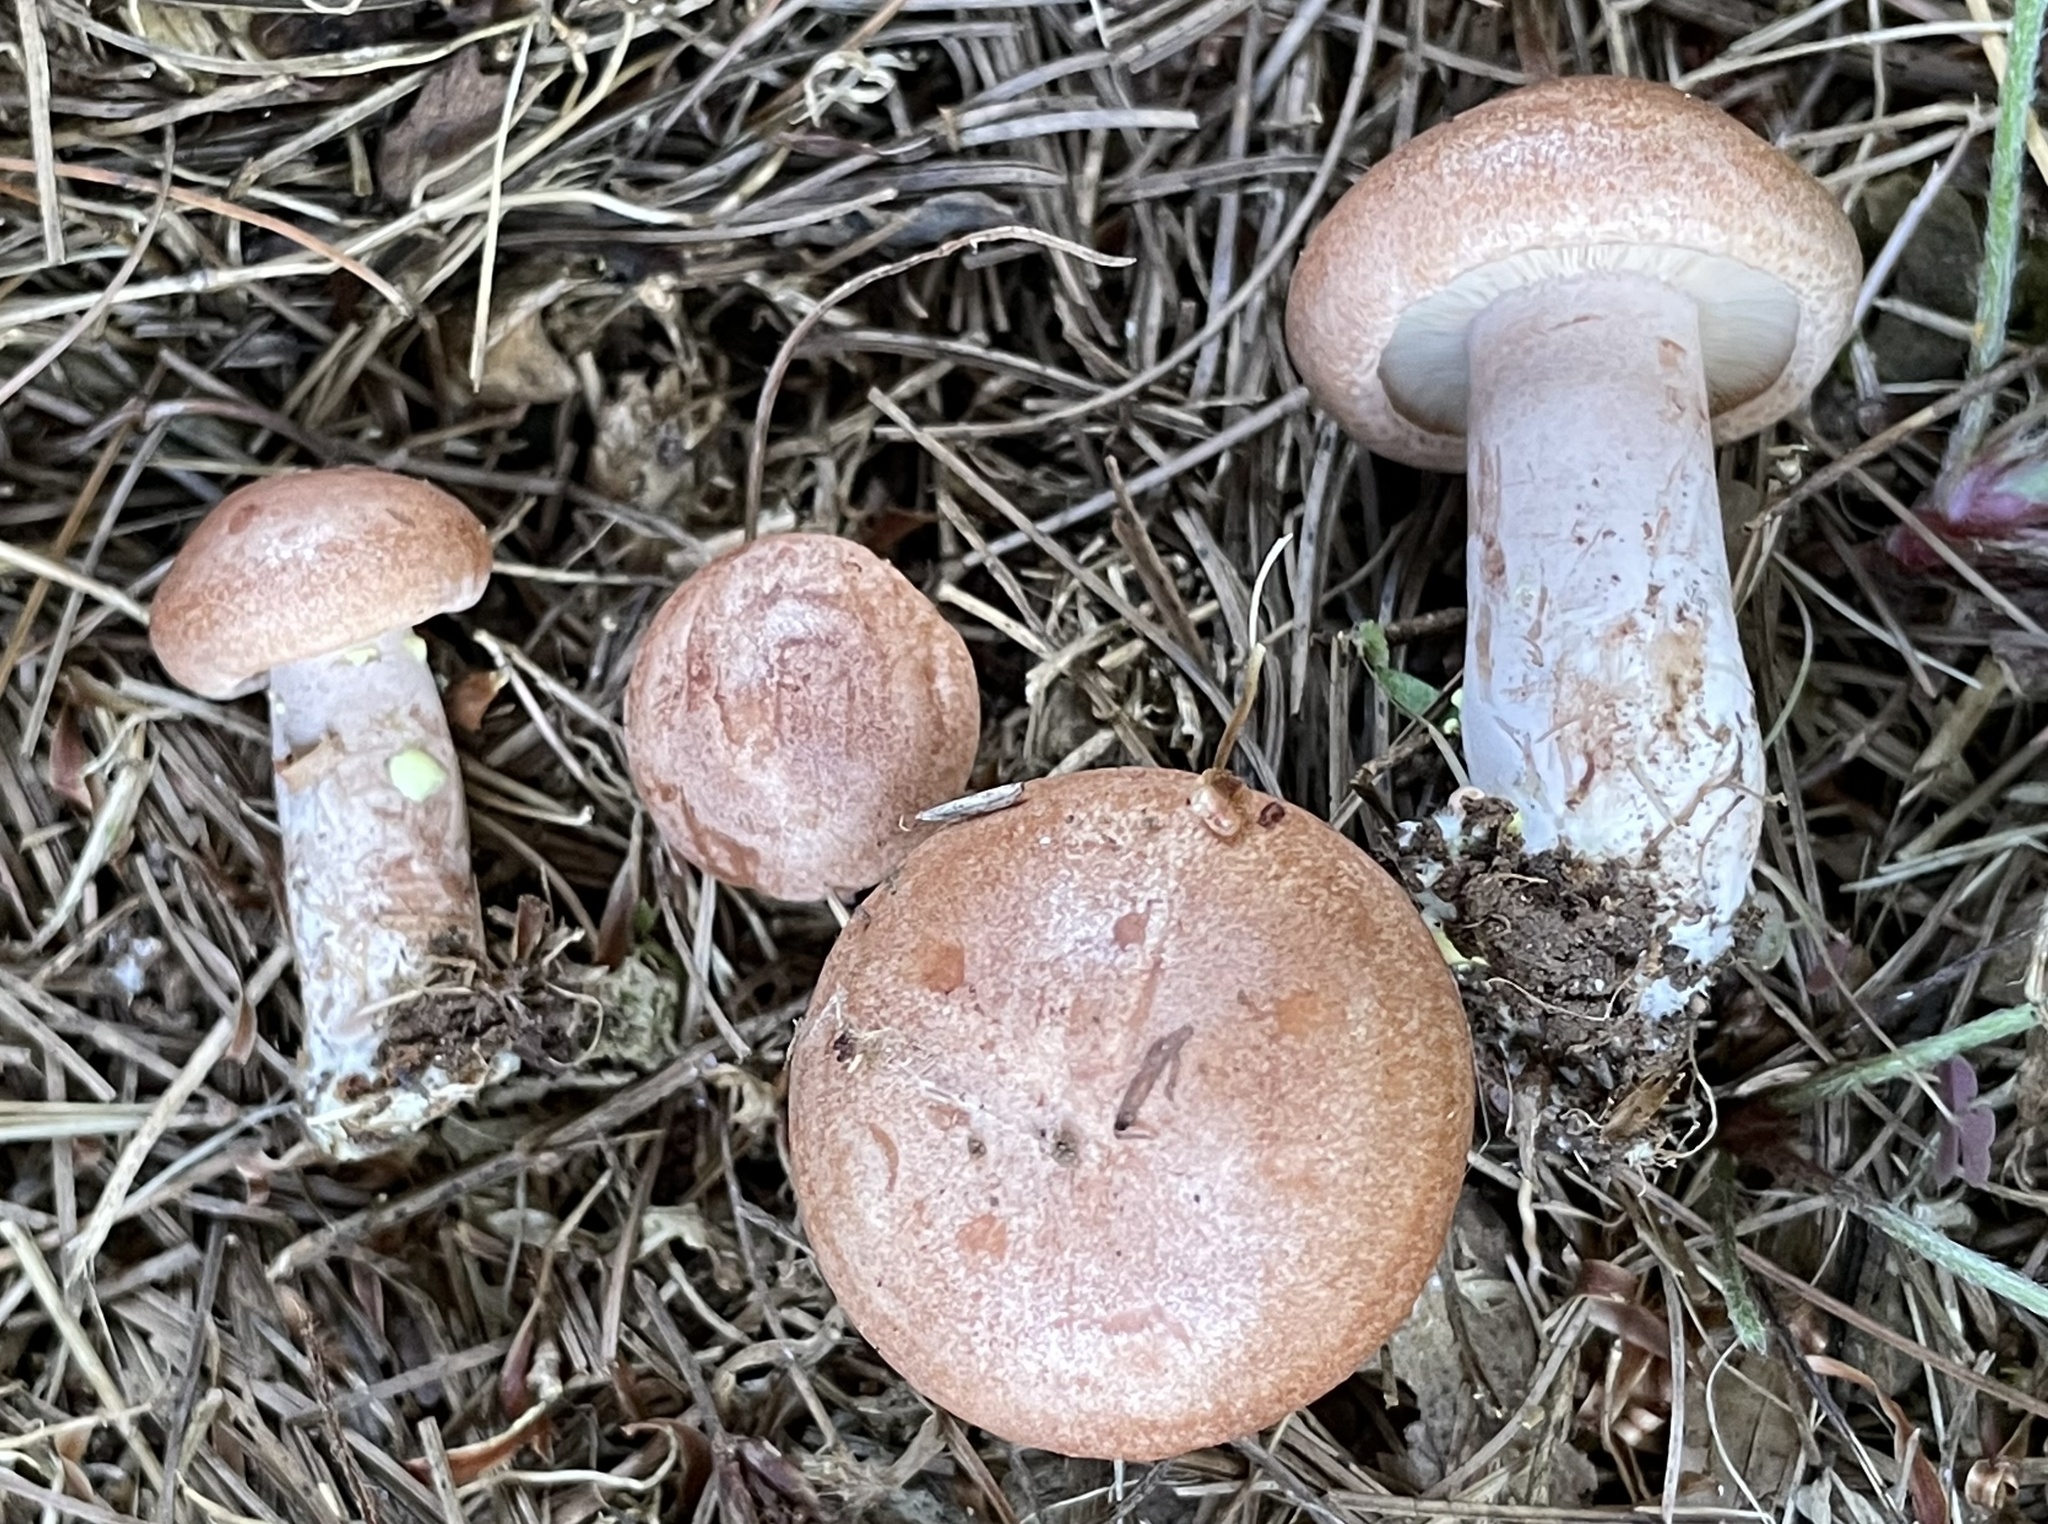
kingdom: Fungi
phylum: Basidiomycota
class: Agaricomycetes
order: Russulales
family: Russulaceae
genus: Lactarius
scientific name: Lactarius vinaceorufescens
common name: Yellow-latex milkcap
